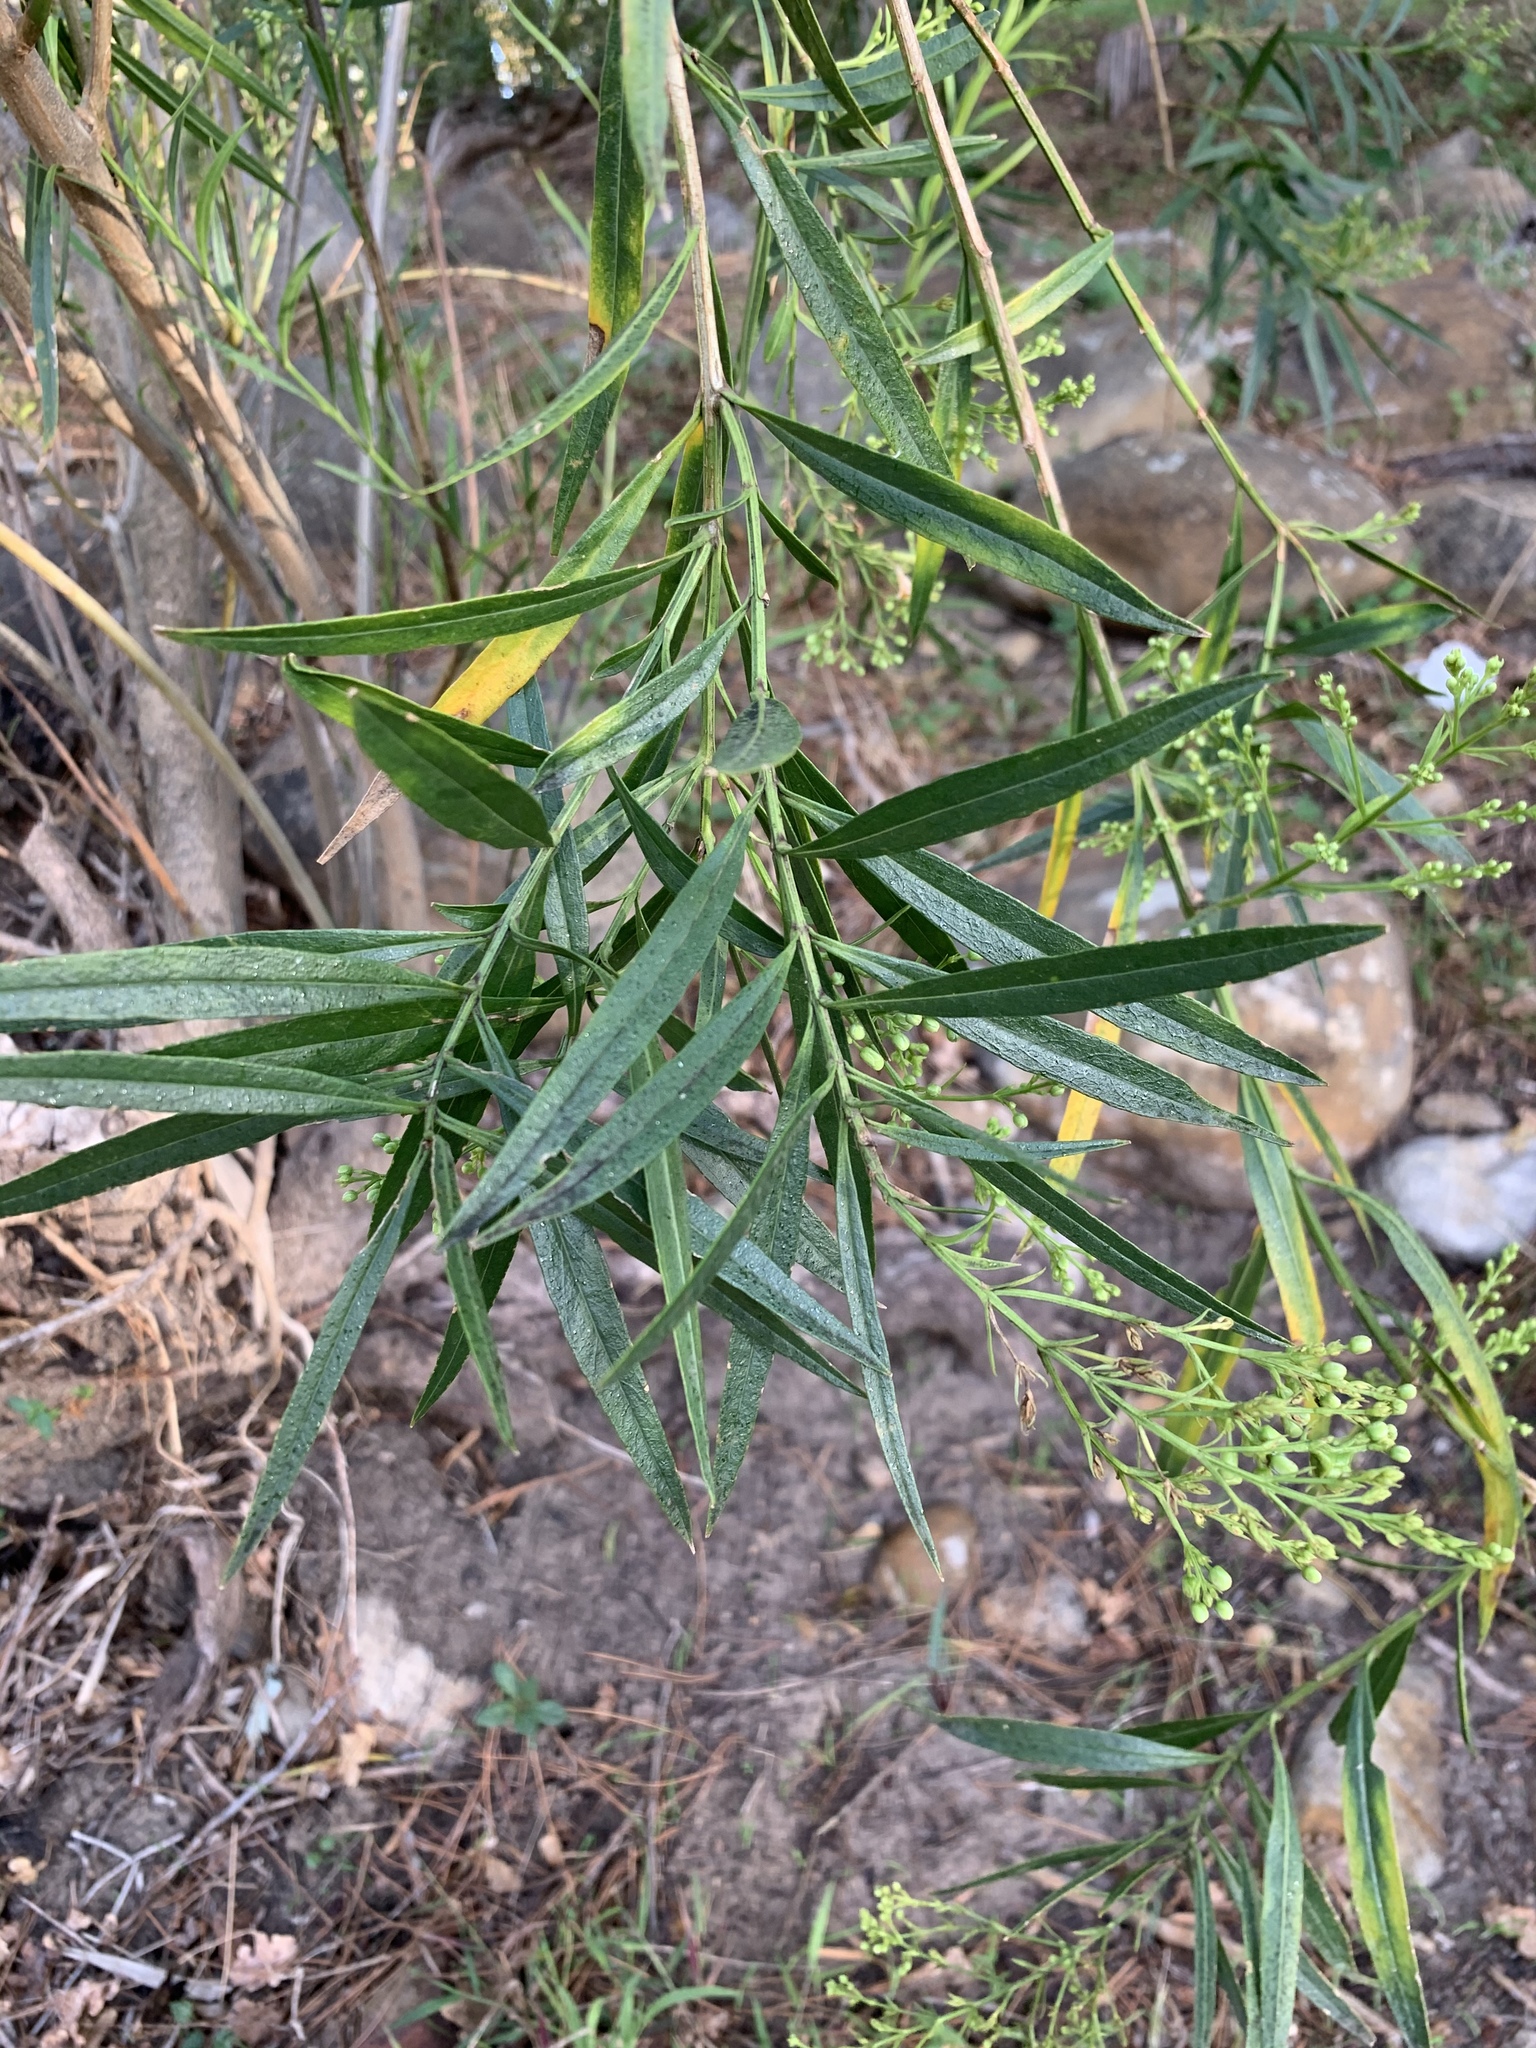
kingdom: Plantae
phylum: Tracheophyta
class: Magnoliopsida
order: Lamiales
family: Scrophulariaceae
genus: Freylinia
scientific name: Freylinia lanceolata
